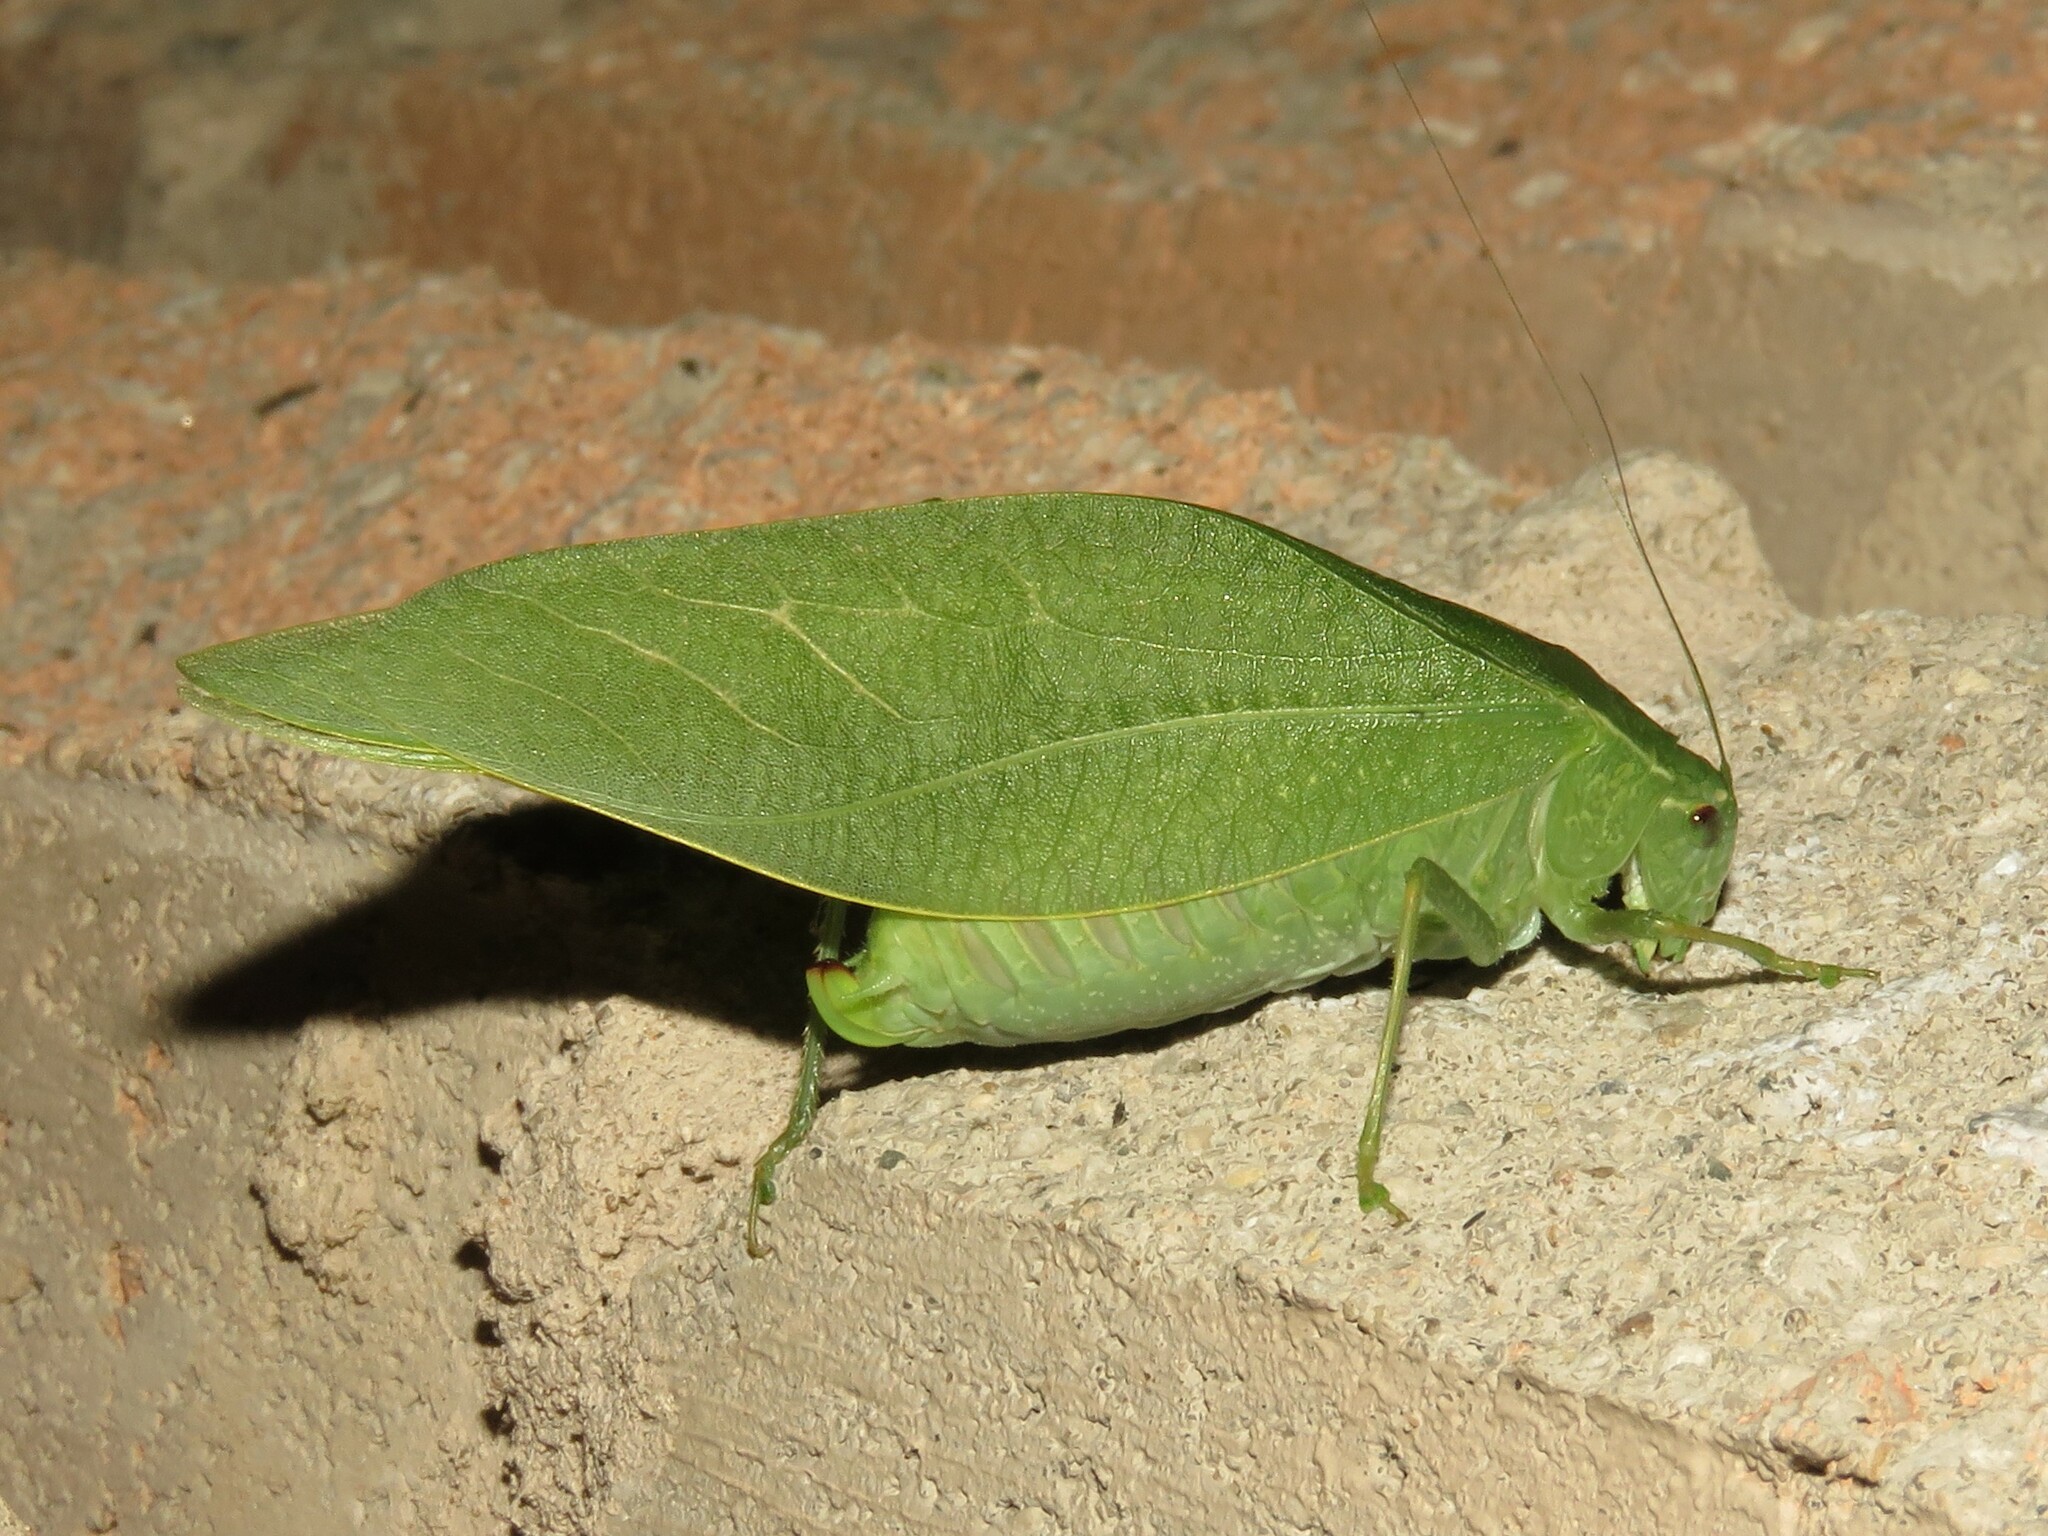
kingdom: Animalia
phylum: Arthropoda
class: Insecta
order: Orthoptera
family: Tettigoniidae
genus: Microcentrum
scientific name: Microcentrum rhombifolium
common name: Broad-winged katydid
